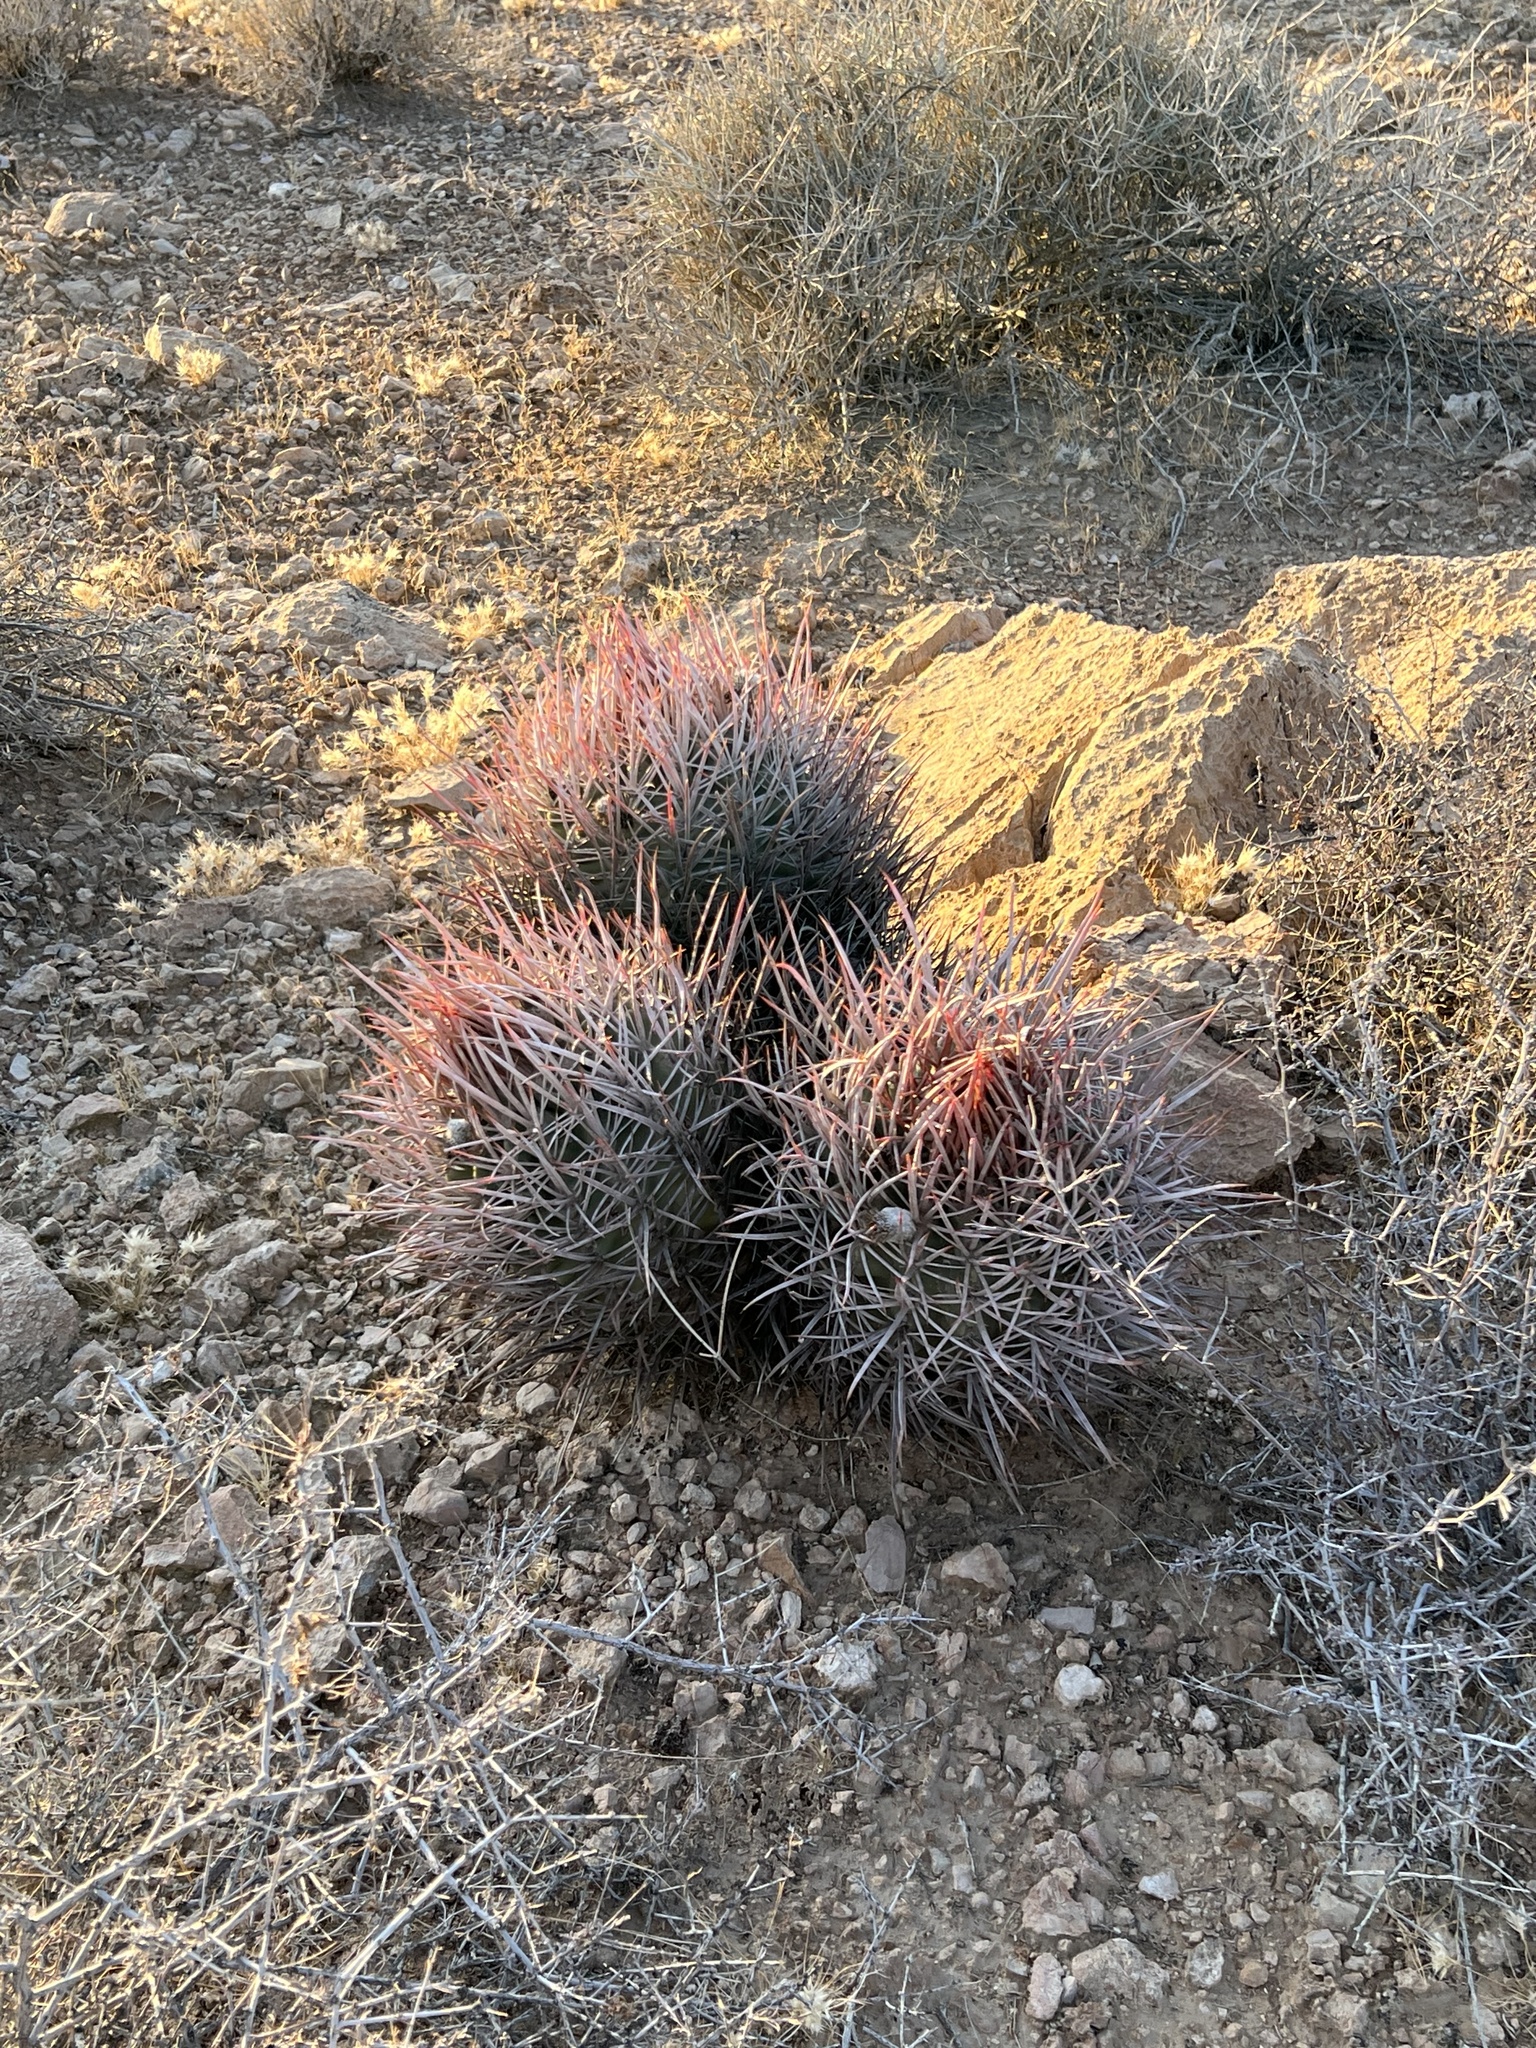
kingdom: Plantae
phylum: Tracheophyta
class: Magnoliopsida
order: Caryophyllales
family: Cactaceae
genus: Echinocactus
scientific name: Echinocactus polycephalus
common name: Cottontop cactus
